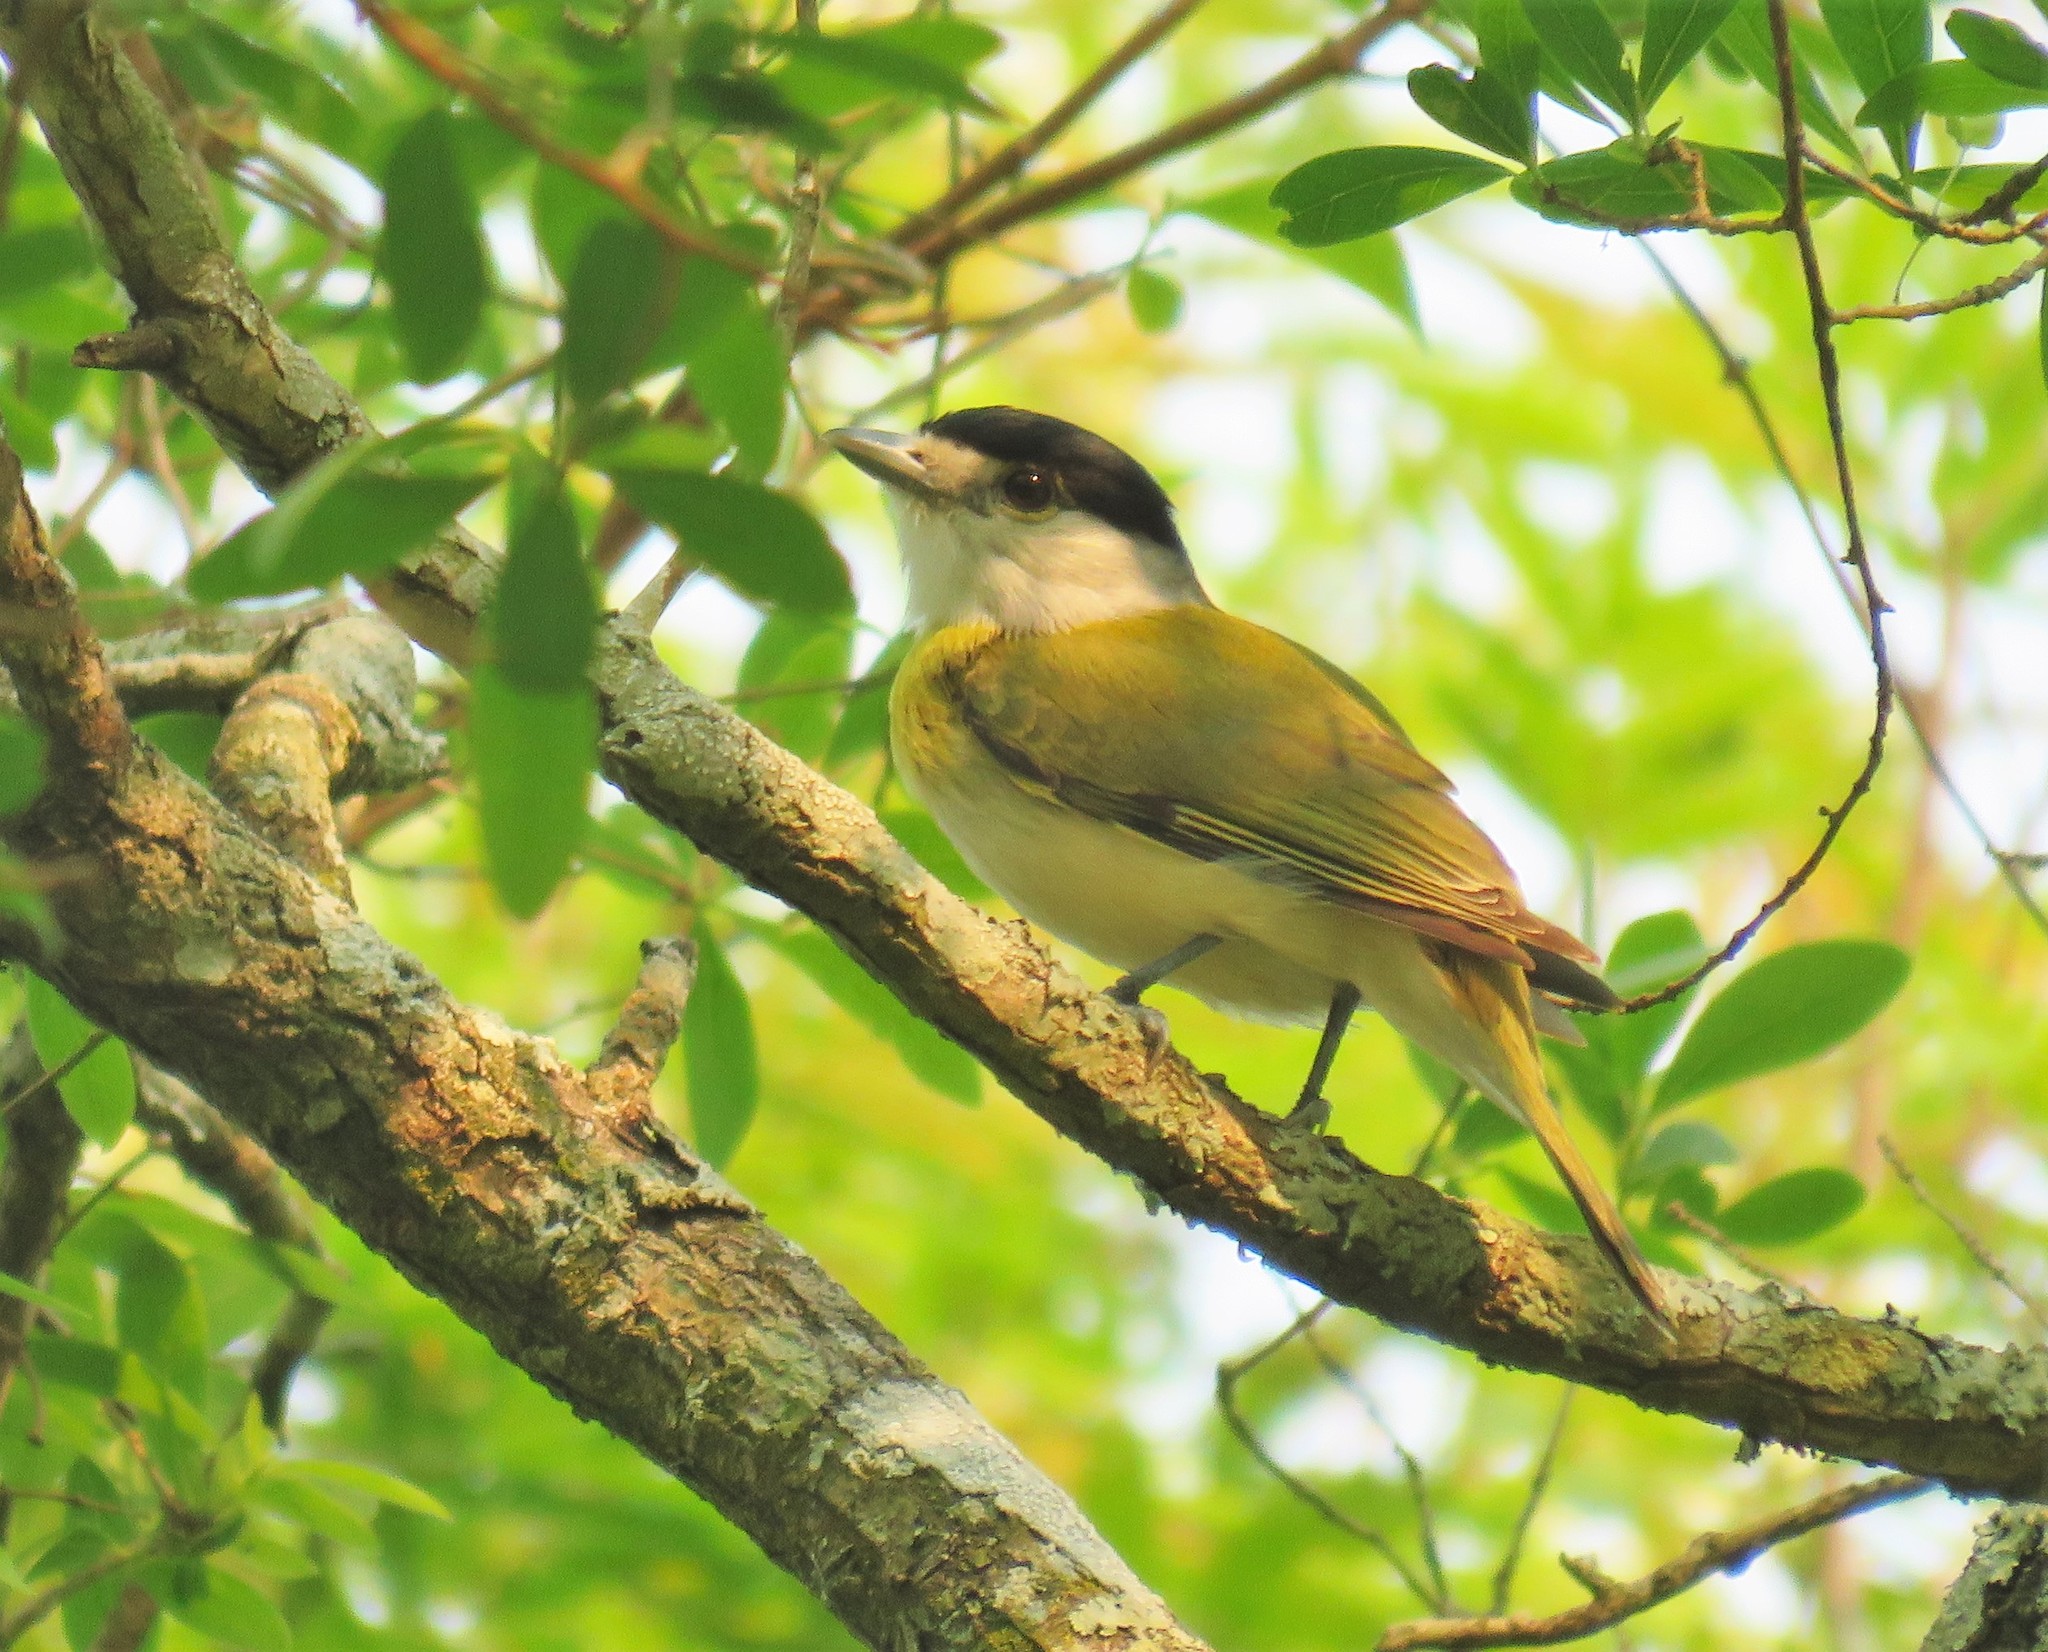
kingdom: Animalia
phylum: Chordata
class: Aves
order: Passeriformes
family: Cotingidae
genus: Pachyramphus
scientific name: Pachyramphus viridis
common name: Green-backed becard
